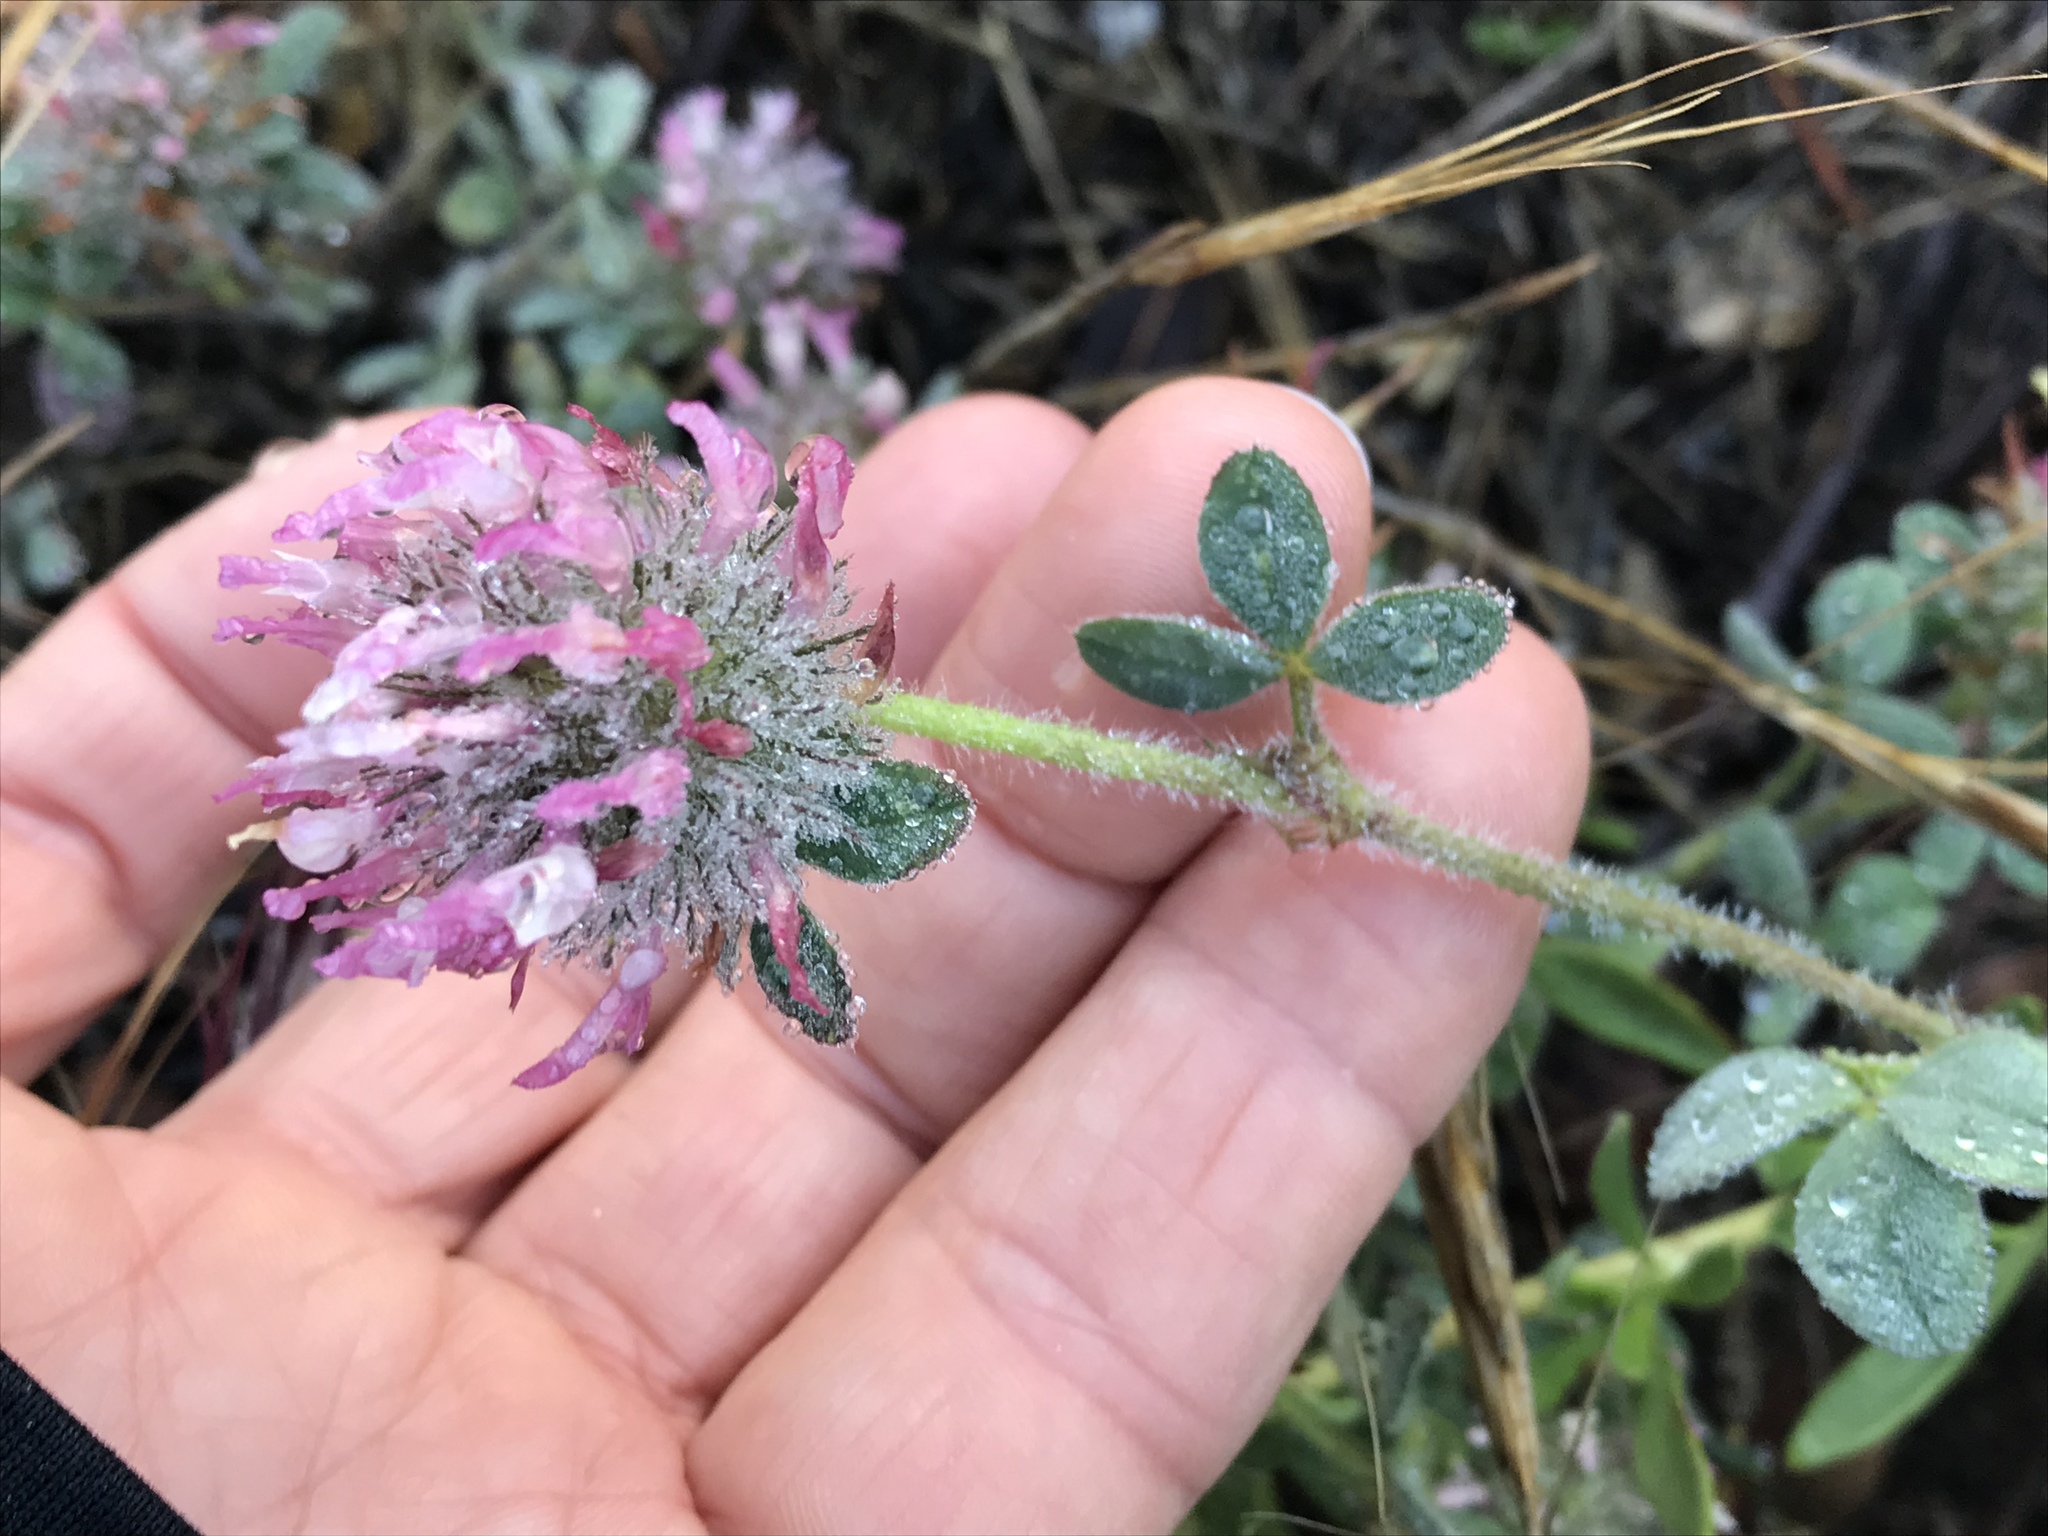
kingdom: Plantae
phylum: Tracheophyta
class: Magnoliopsida
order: Fabales
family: Fabaceae
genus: Trifolium
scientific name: Trifolium hirtum
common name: Rose clover
